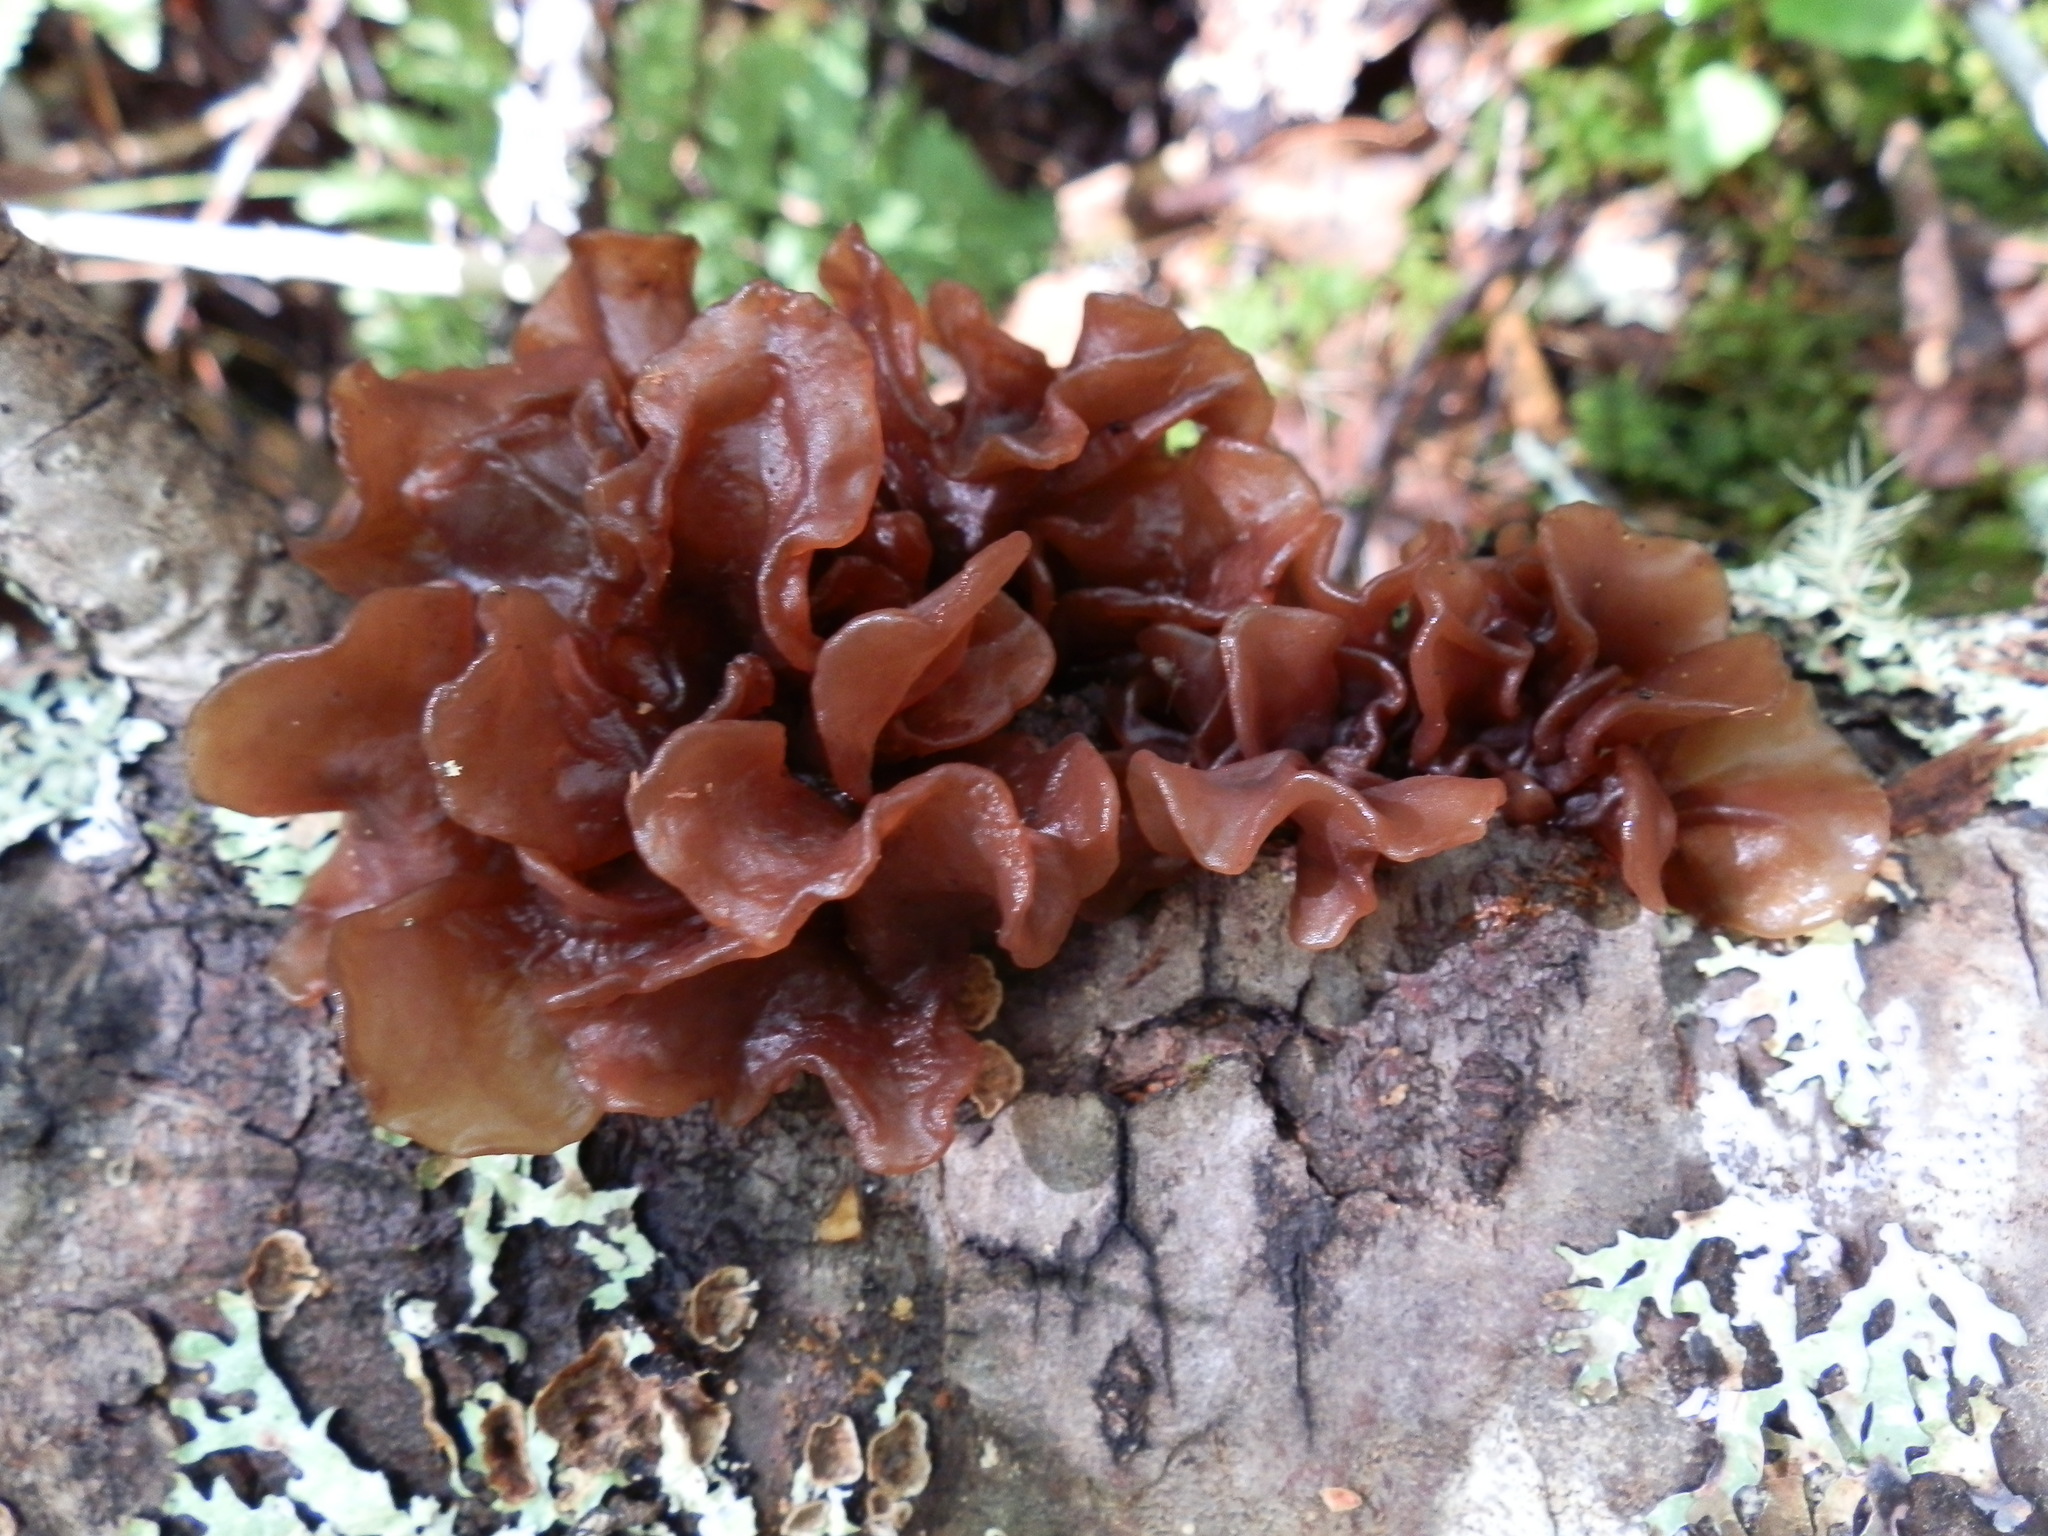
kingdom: Fungi
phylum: Basidiomycota
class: Tremellomycetes
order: Tremellales
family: Tremellaceae
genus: Phaeotremella
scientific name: Phaeotremella foliacea
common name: Leafy brain
